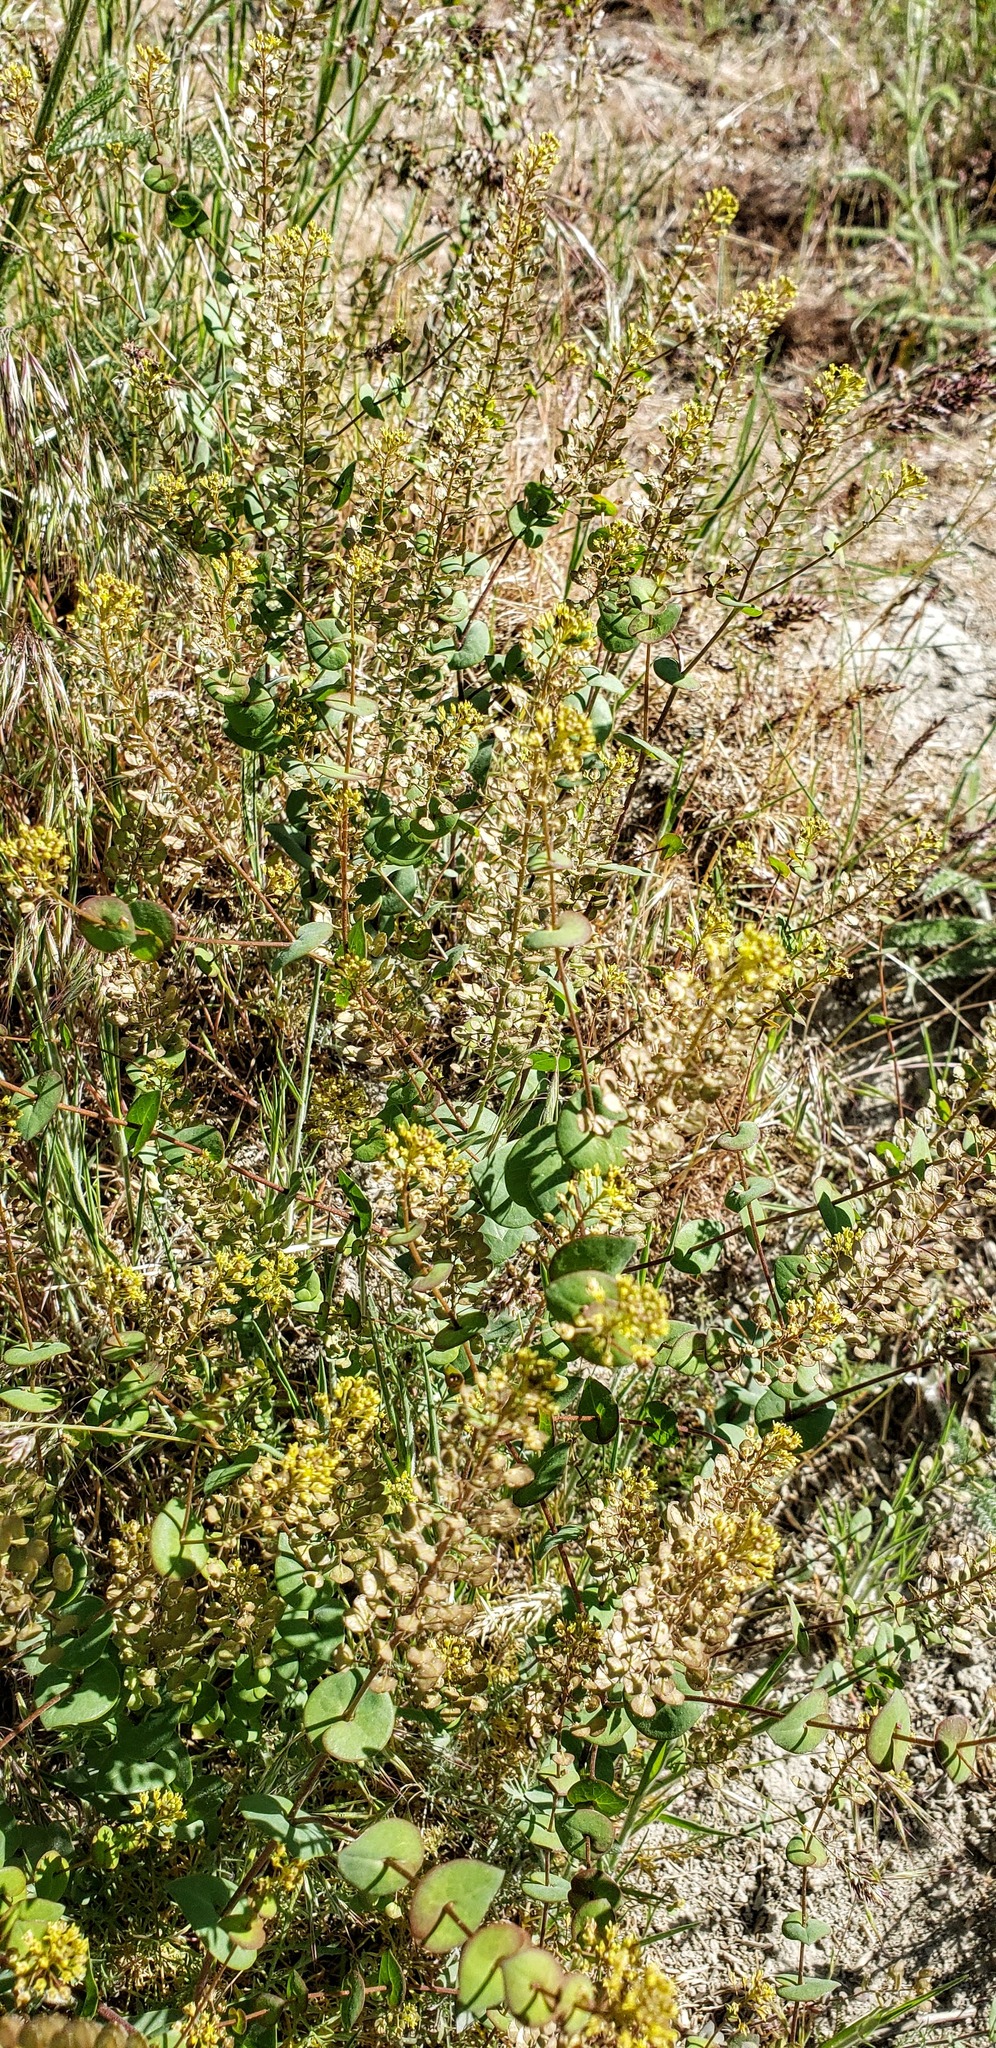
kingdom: Plantae
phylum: Tracheophyta
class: Magnoliopsida
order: Brassicales
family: Brassicaceae
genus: Lepidium
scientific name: Lepidium perfoliatum
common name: Perfoliate pepperwort
